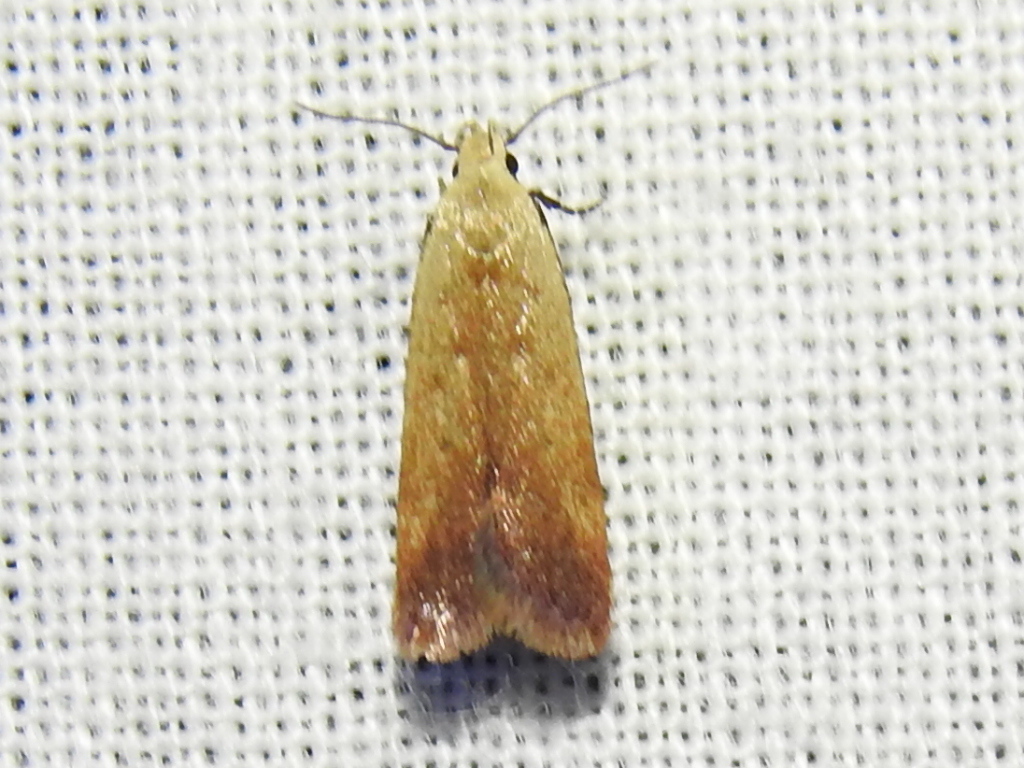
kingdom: Animalia
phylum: Arthropoda
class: Insecta
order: Lepidoptera
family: Gelechiidae
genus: Anacampsis
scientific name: Anacampsis fullonella
